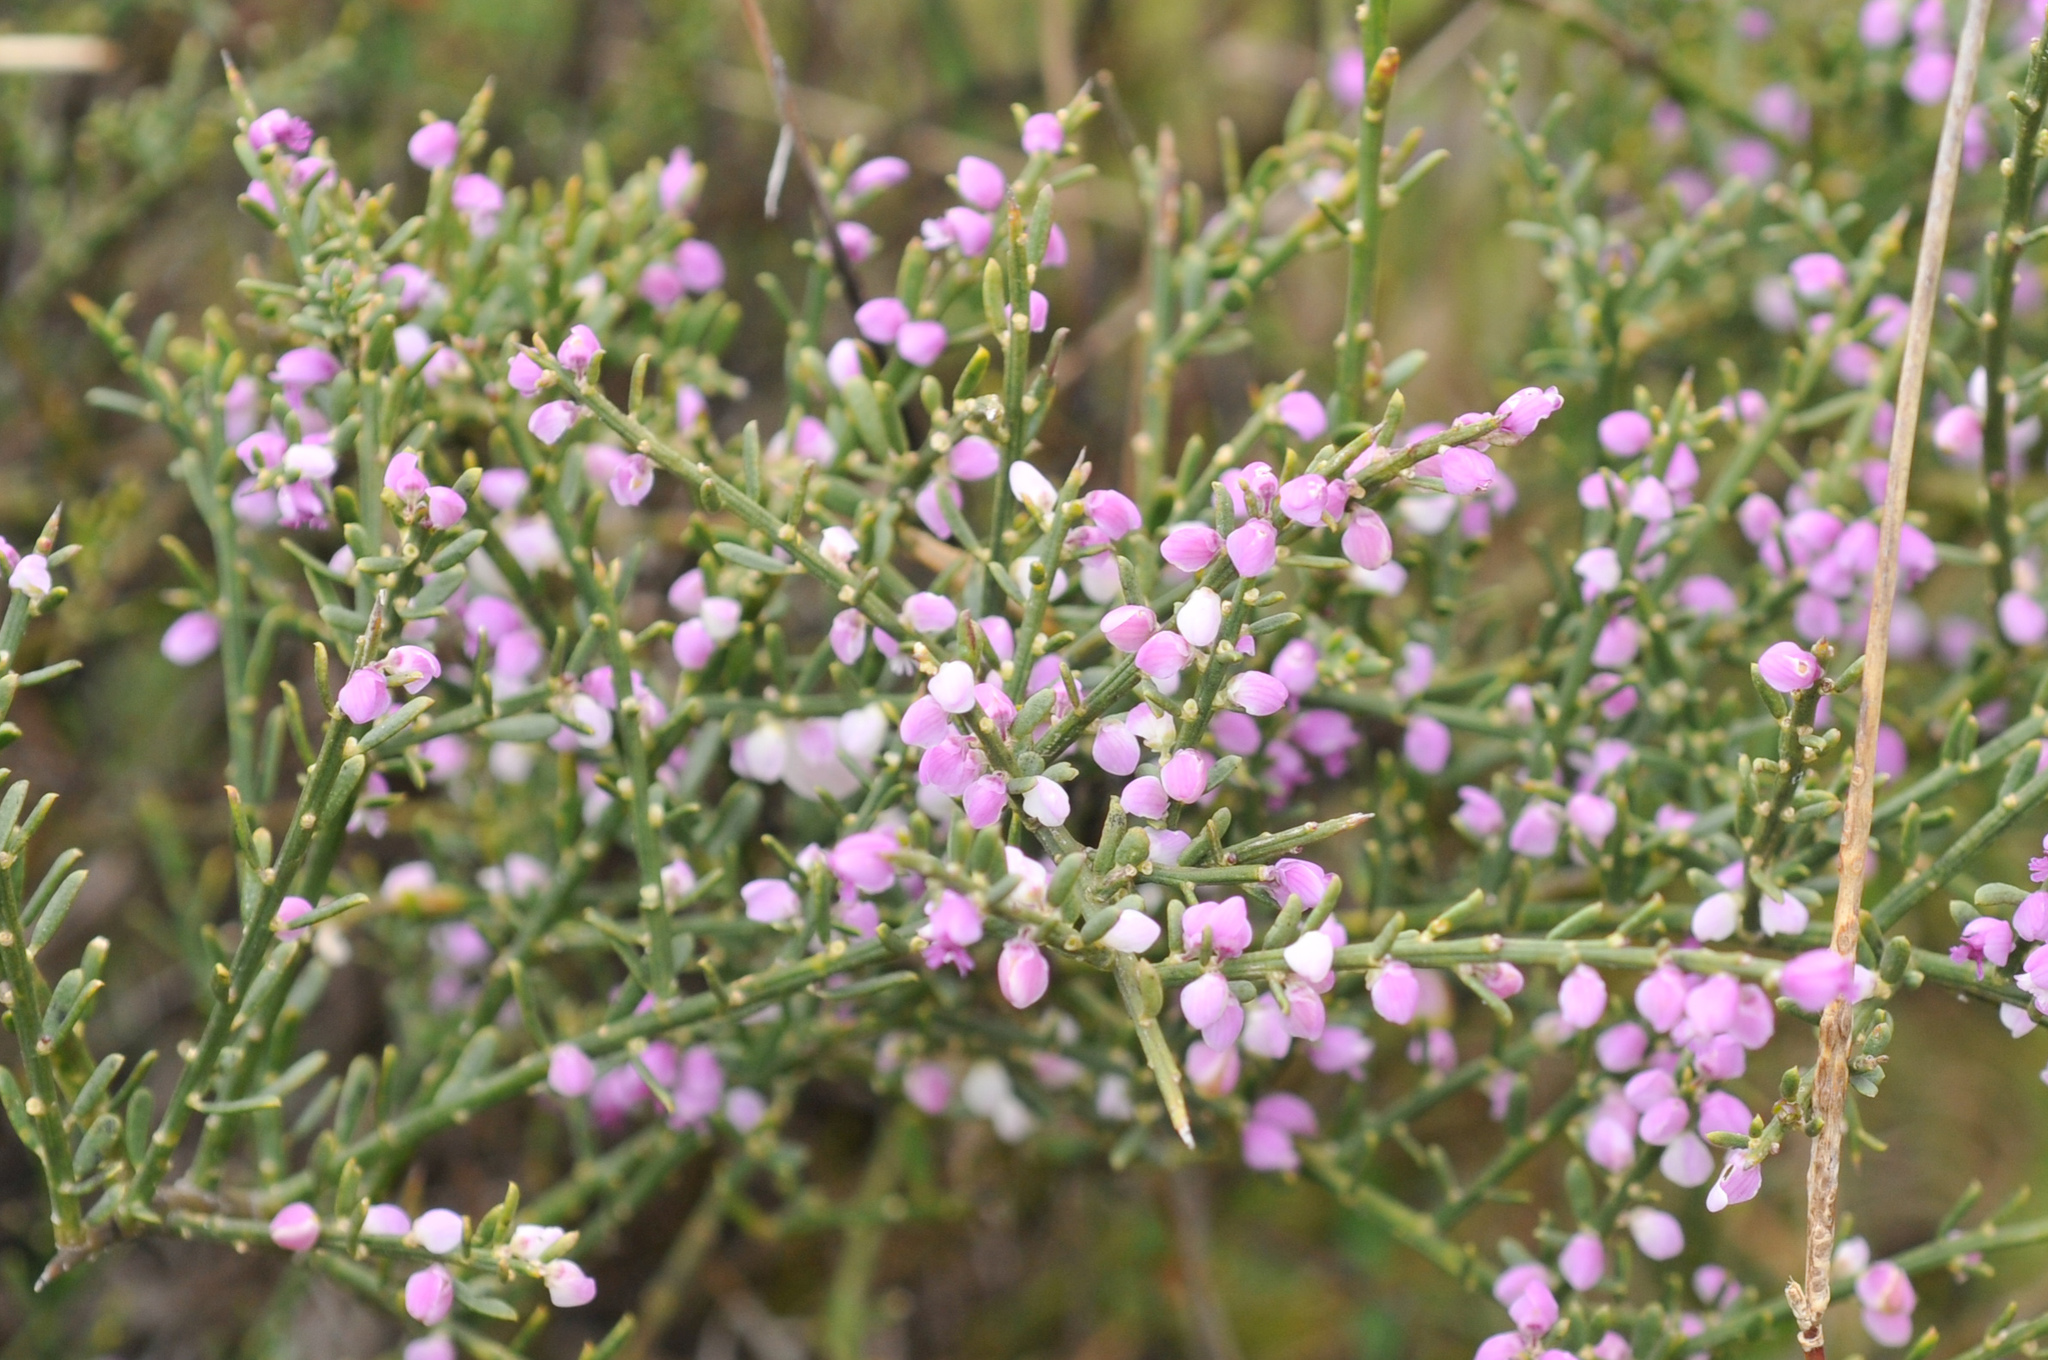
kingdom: Plantae
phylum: Tracheophyta
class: Magnoliopsida
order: Fabales
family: Polygalaceae
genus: Muraltia
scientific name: Muraltia spinosa
